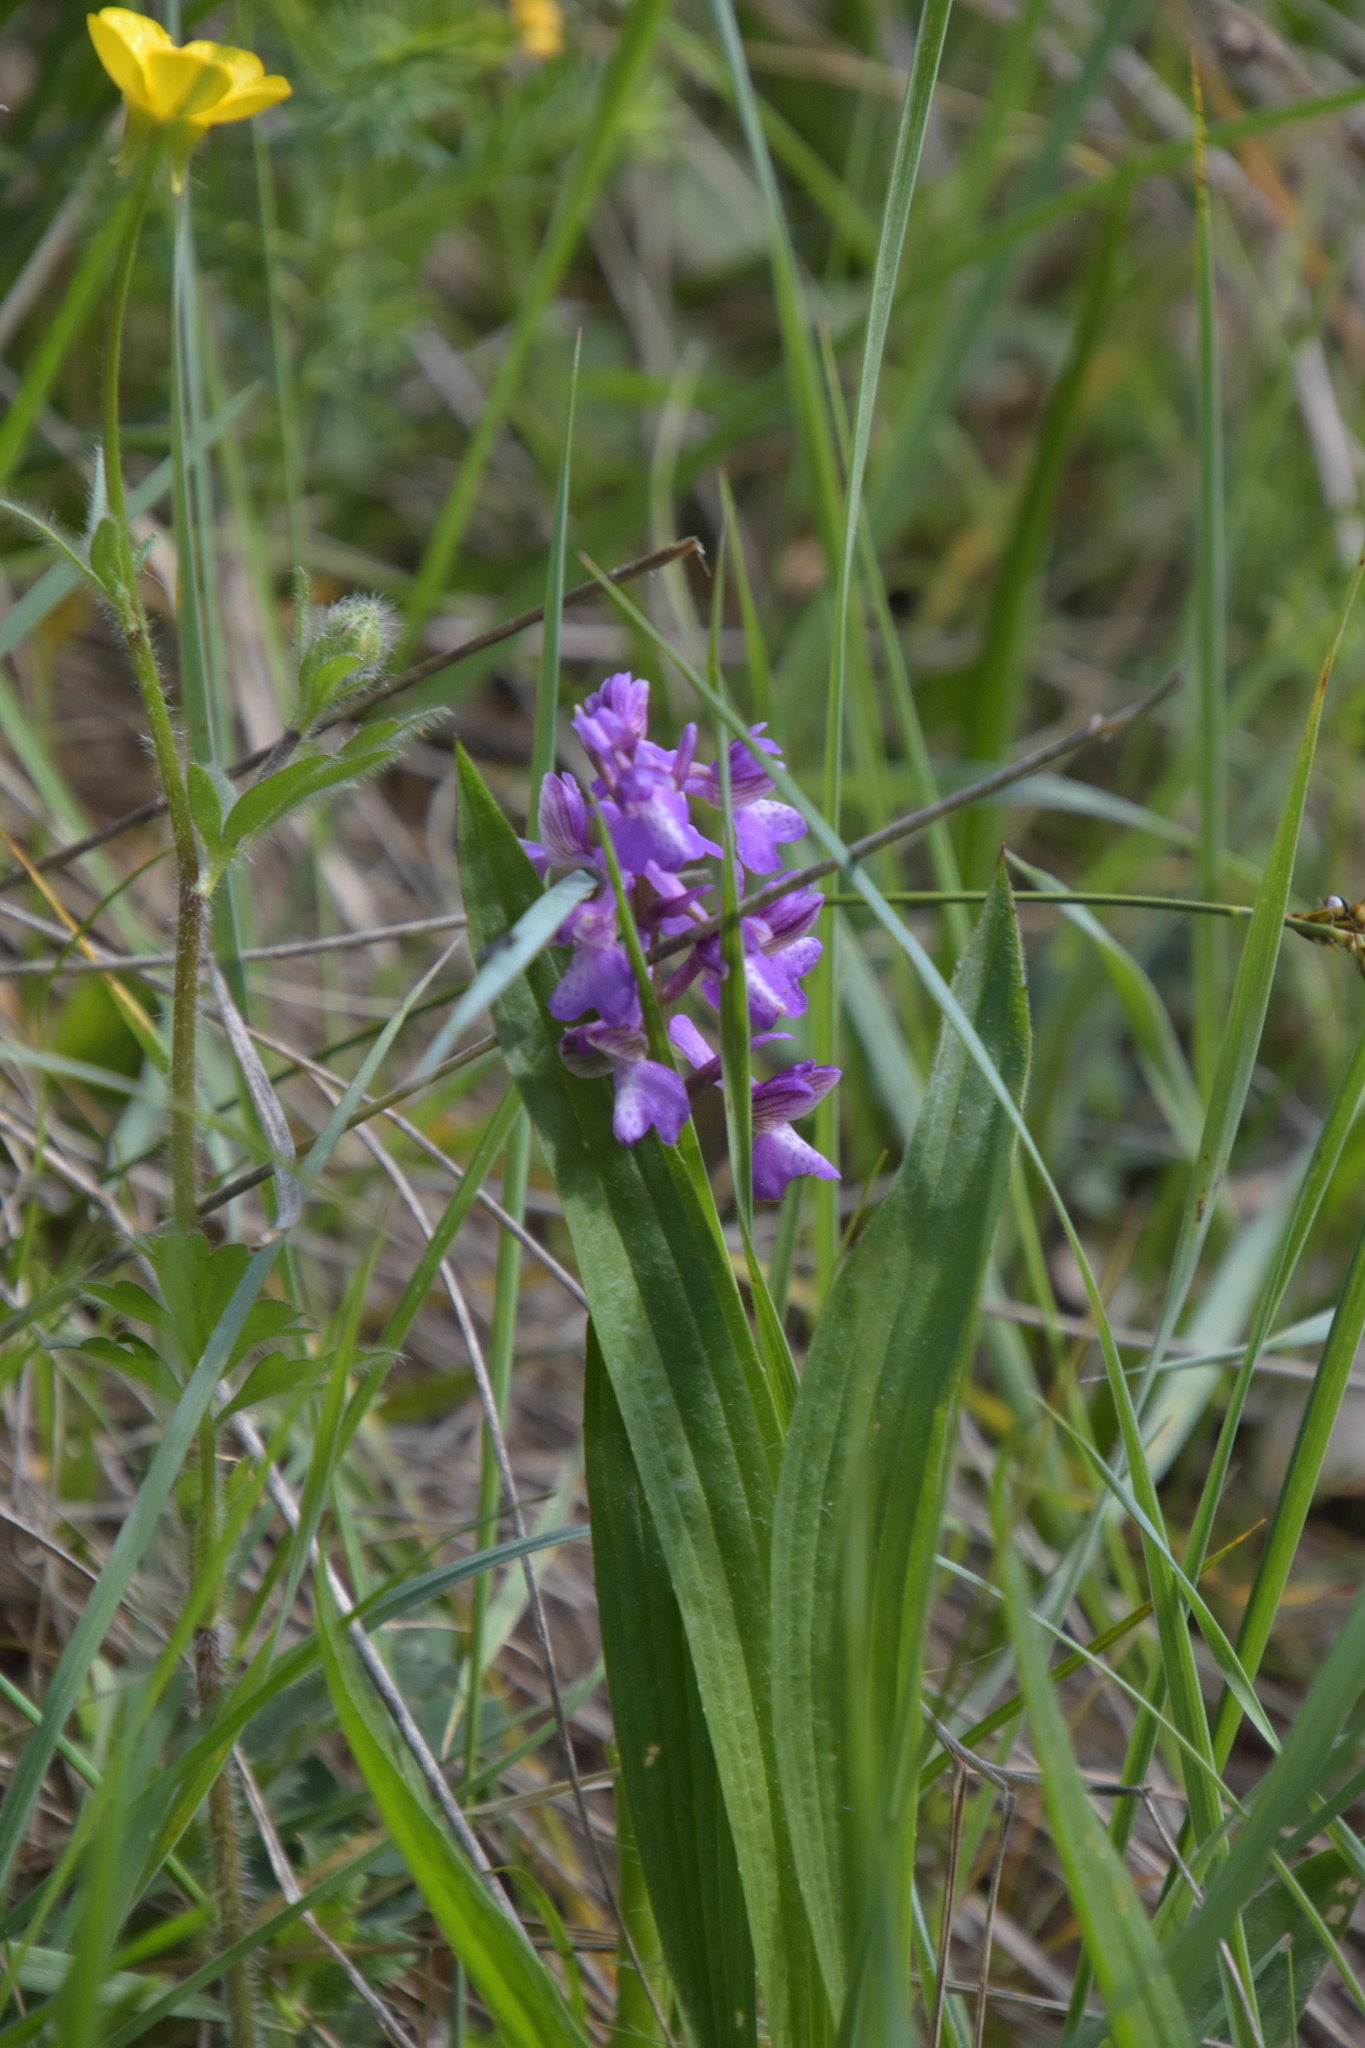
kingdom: Plantae
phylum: Tracheophyta
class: Liliopsida
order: Asparagales
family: Orchidaceae
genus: Anacamptis
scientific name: Anacamptis morio
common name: Green-winged orchid
